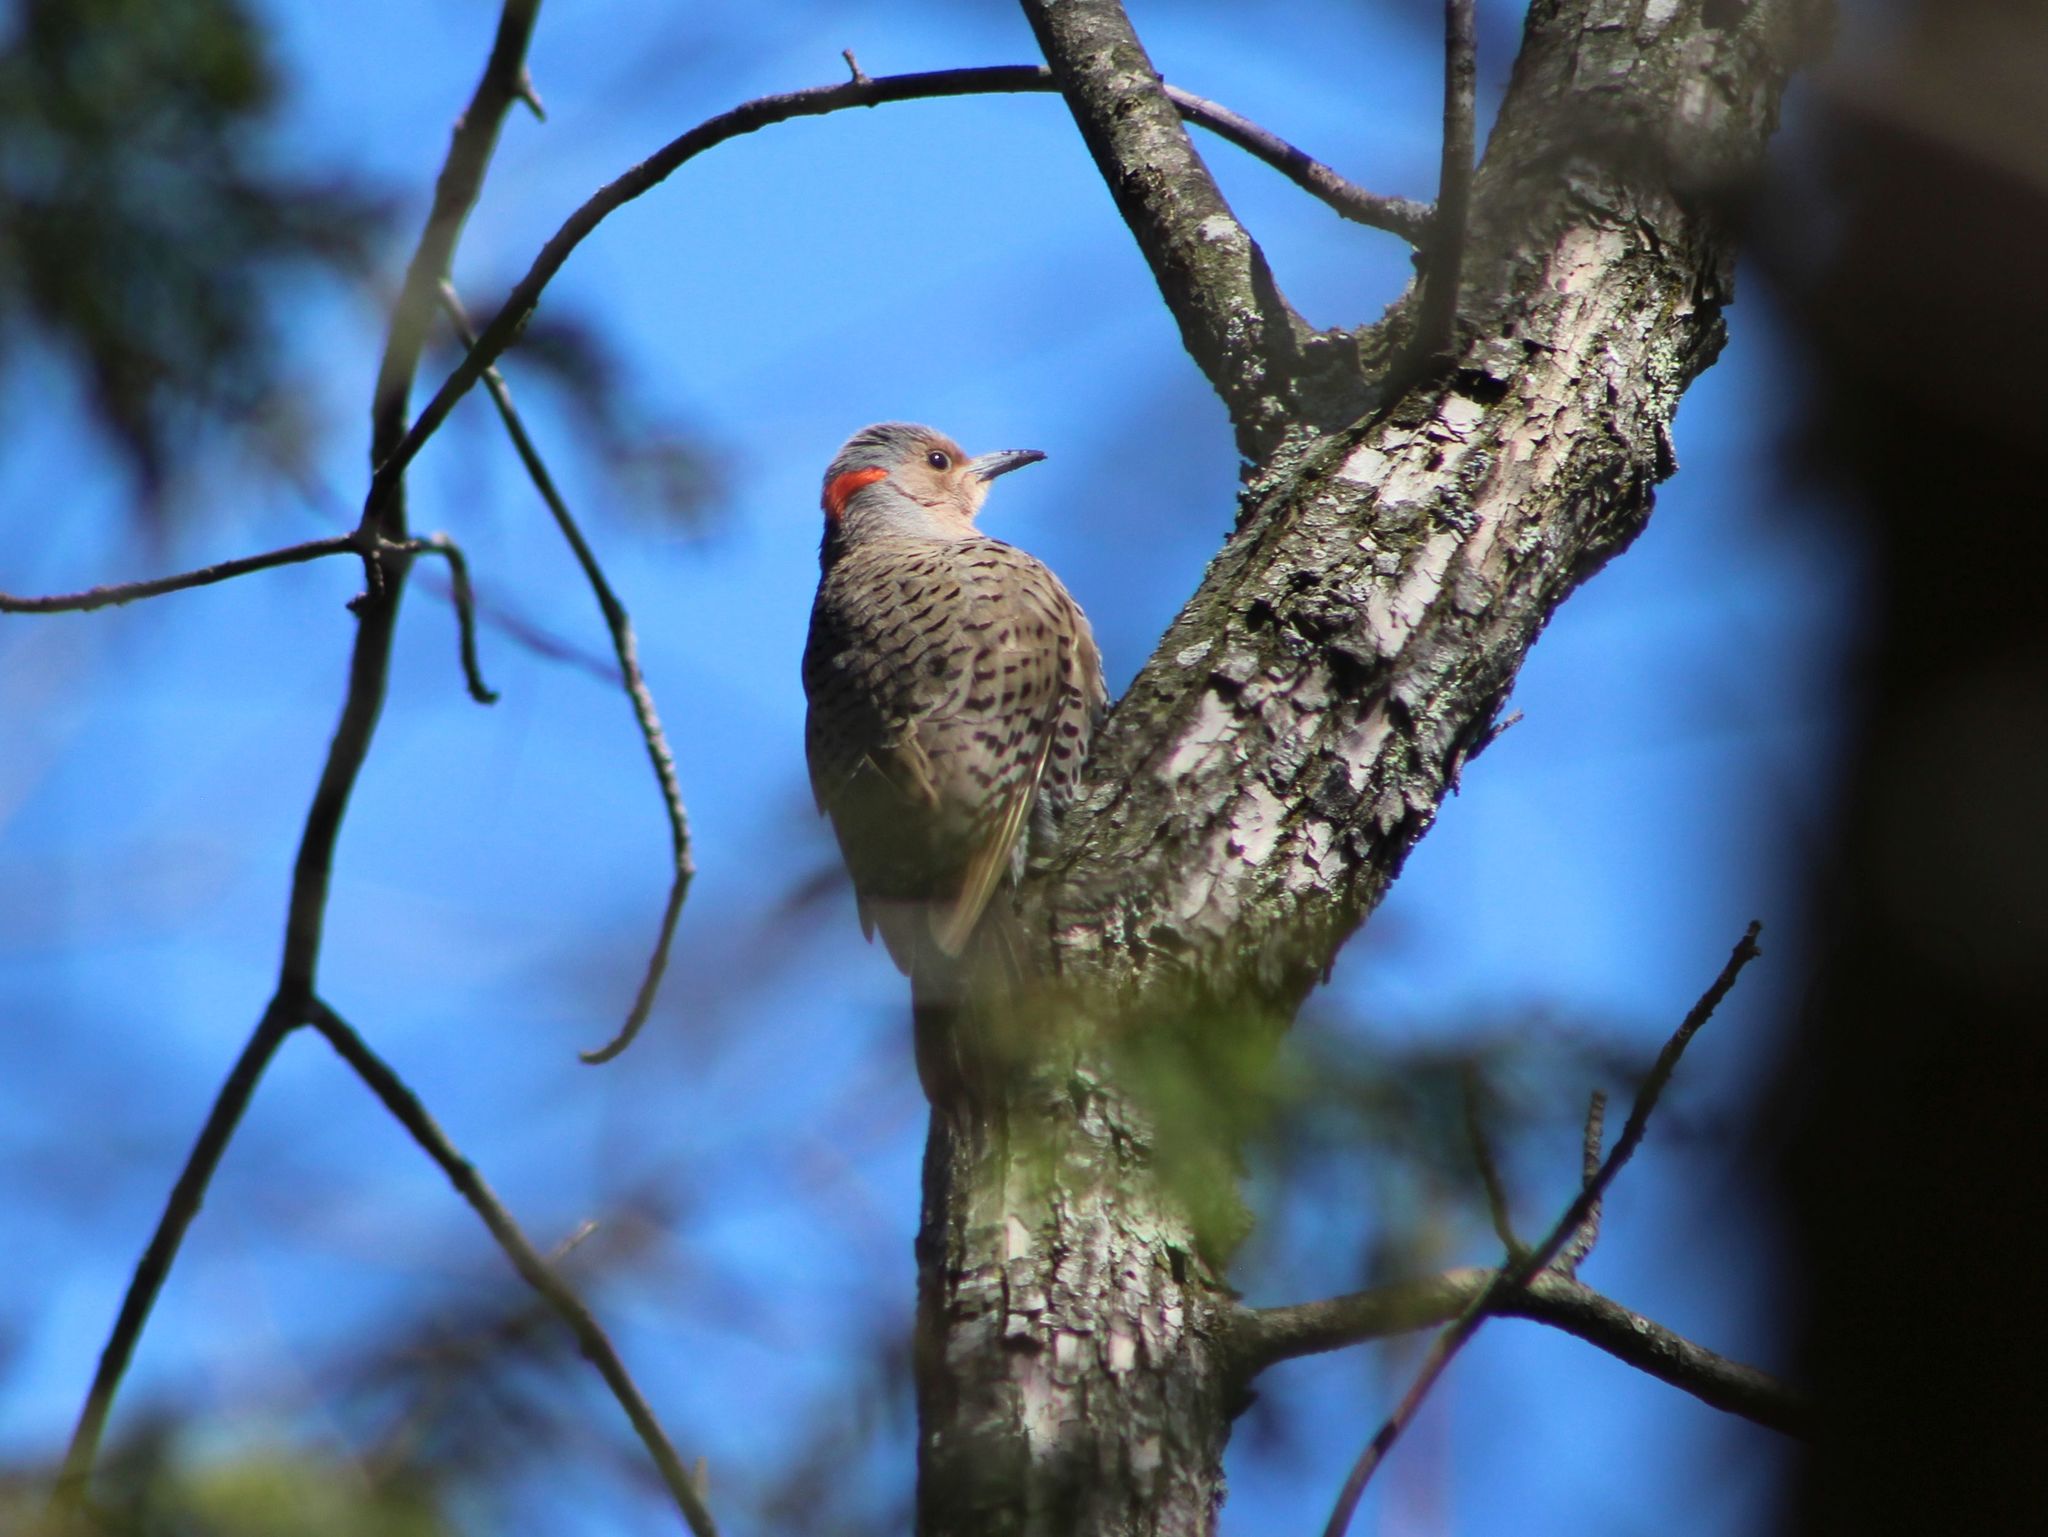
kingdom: Animalia
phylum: Chordata
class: Aves
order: Piciformes
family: Picidae
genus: Colaptes
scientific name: Colaptes auratus
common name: Northern flicker
